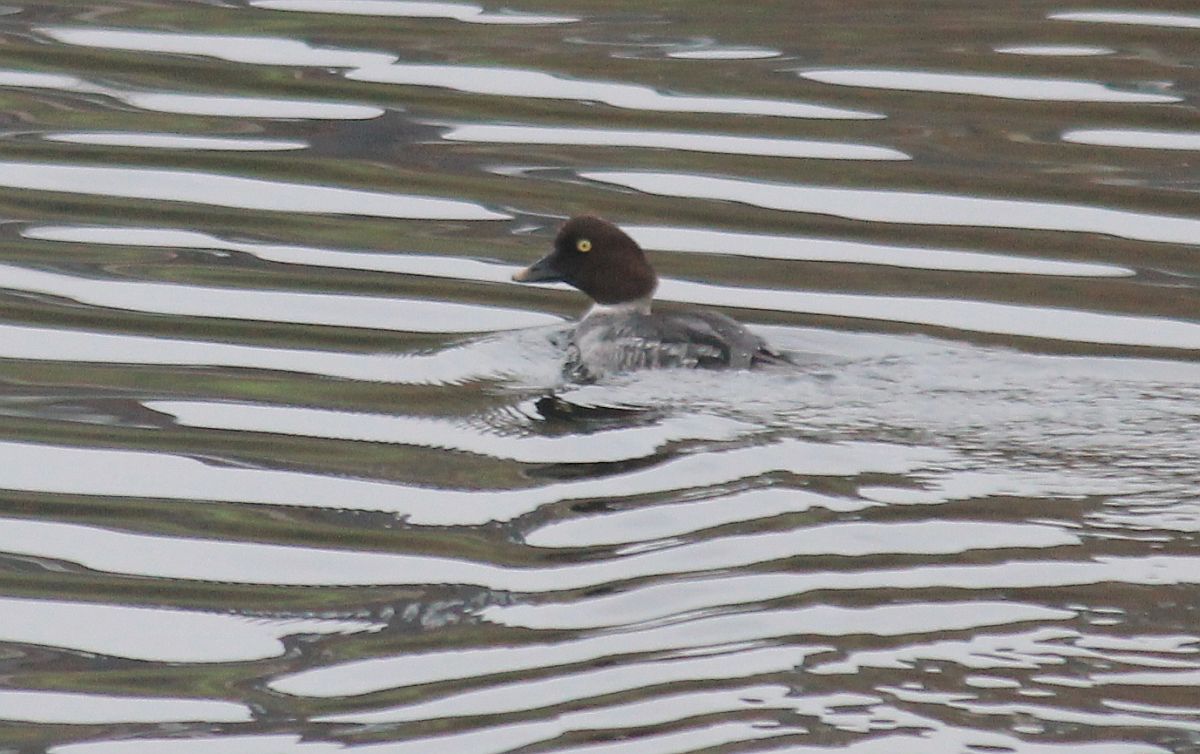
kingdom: Animalia
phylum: Chordata
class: Aves
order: Anseriformes
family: Anatidae
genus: Bucephala
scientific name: Bucephala clangula
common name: Common goldeneye
